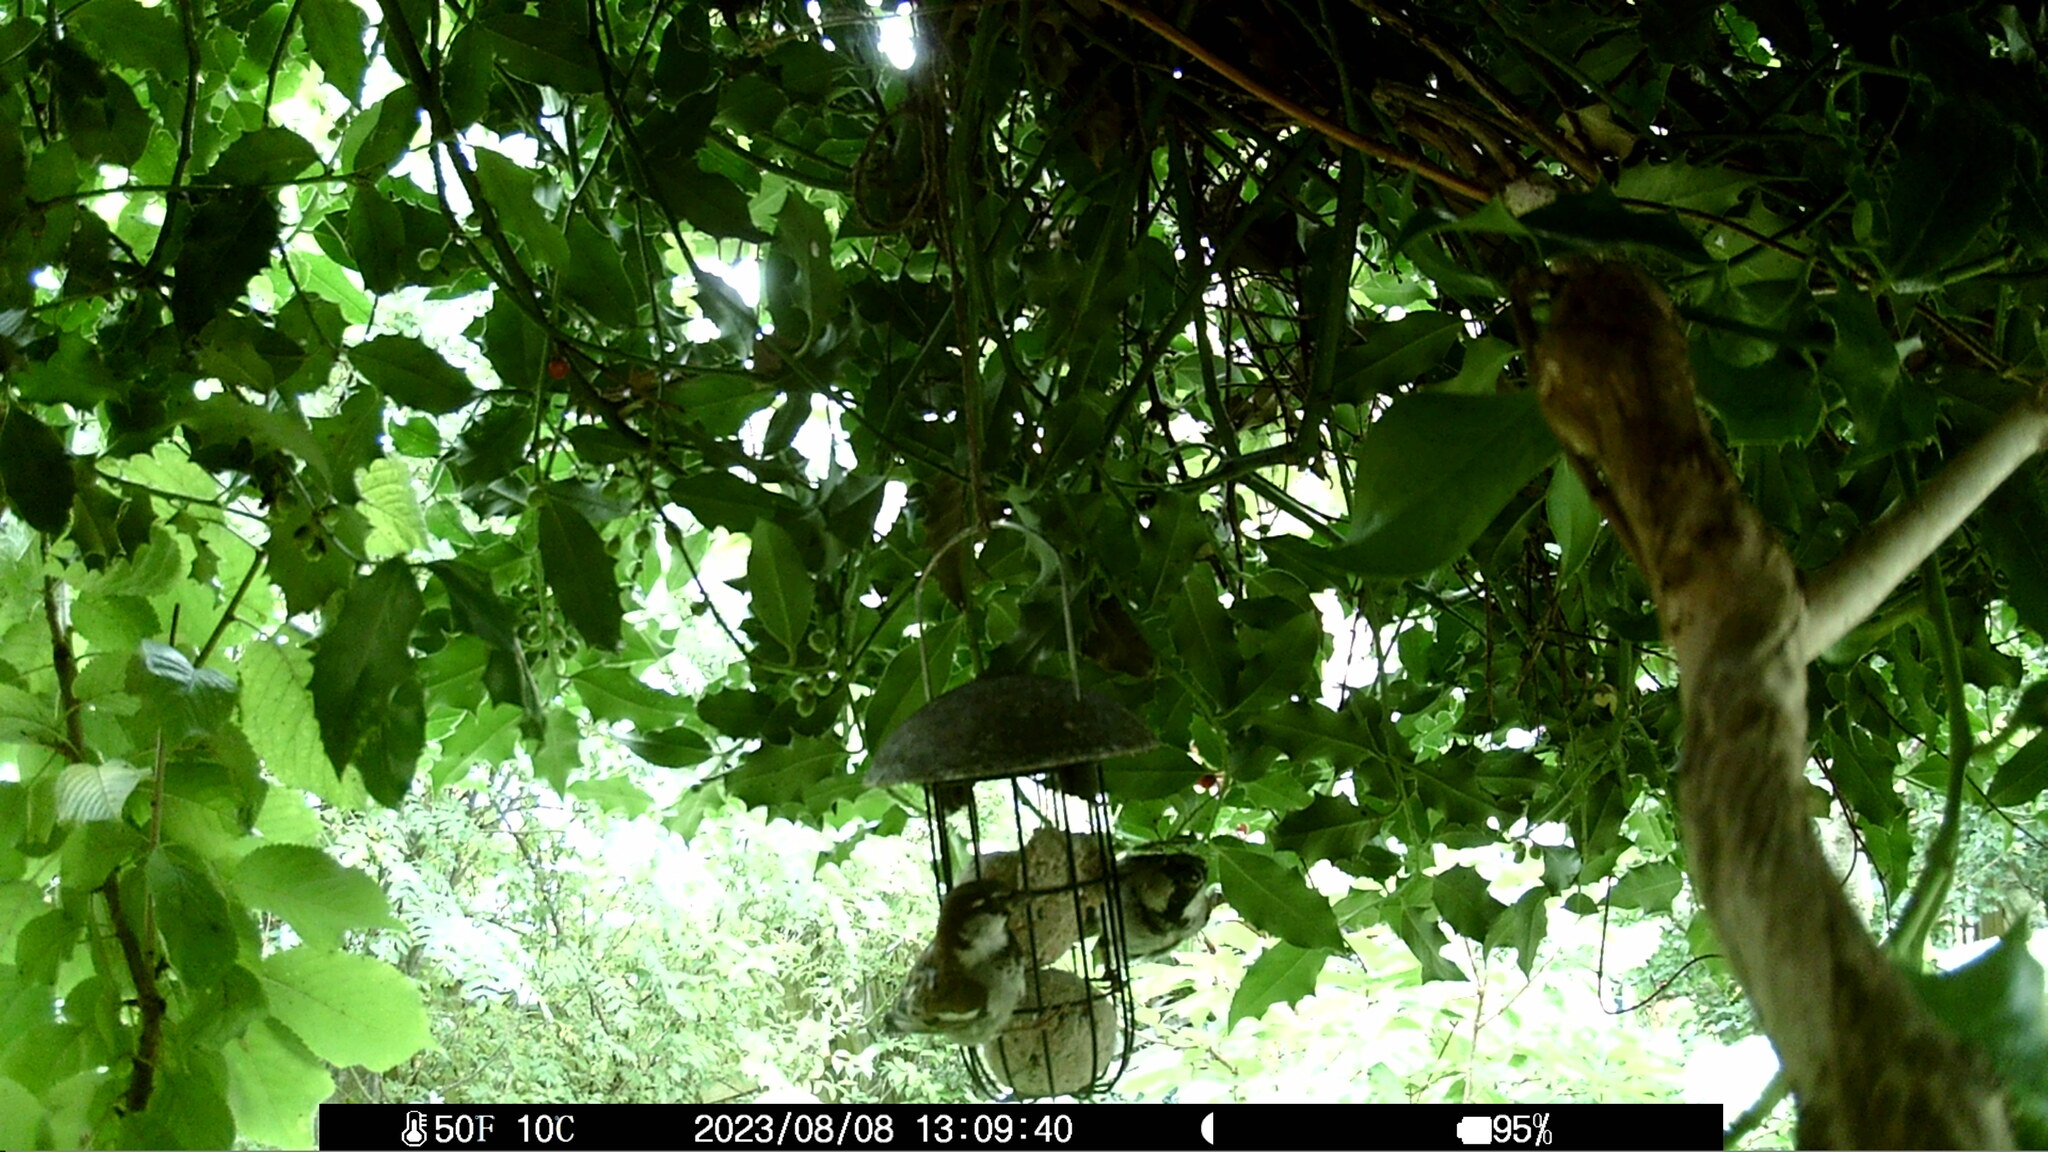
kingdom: Animalia
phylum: Chordata
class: Aves
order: Passeriformes
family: Passeridae
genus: Passer
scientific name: Passer domesticus
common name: House sparrow
